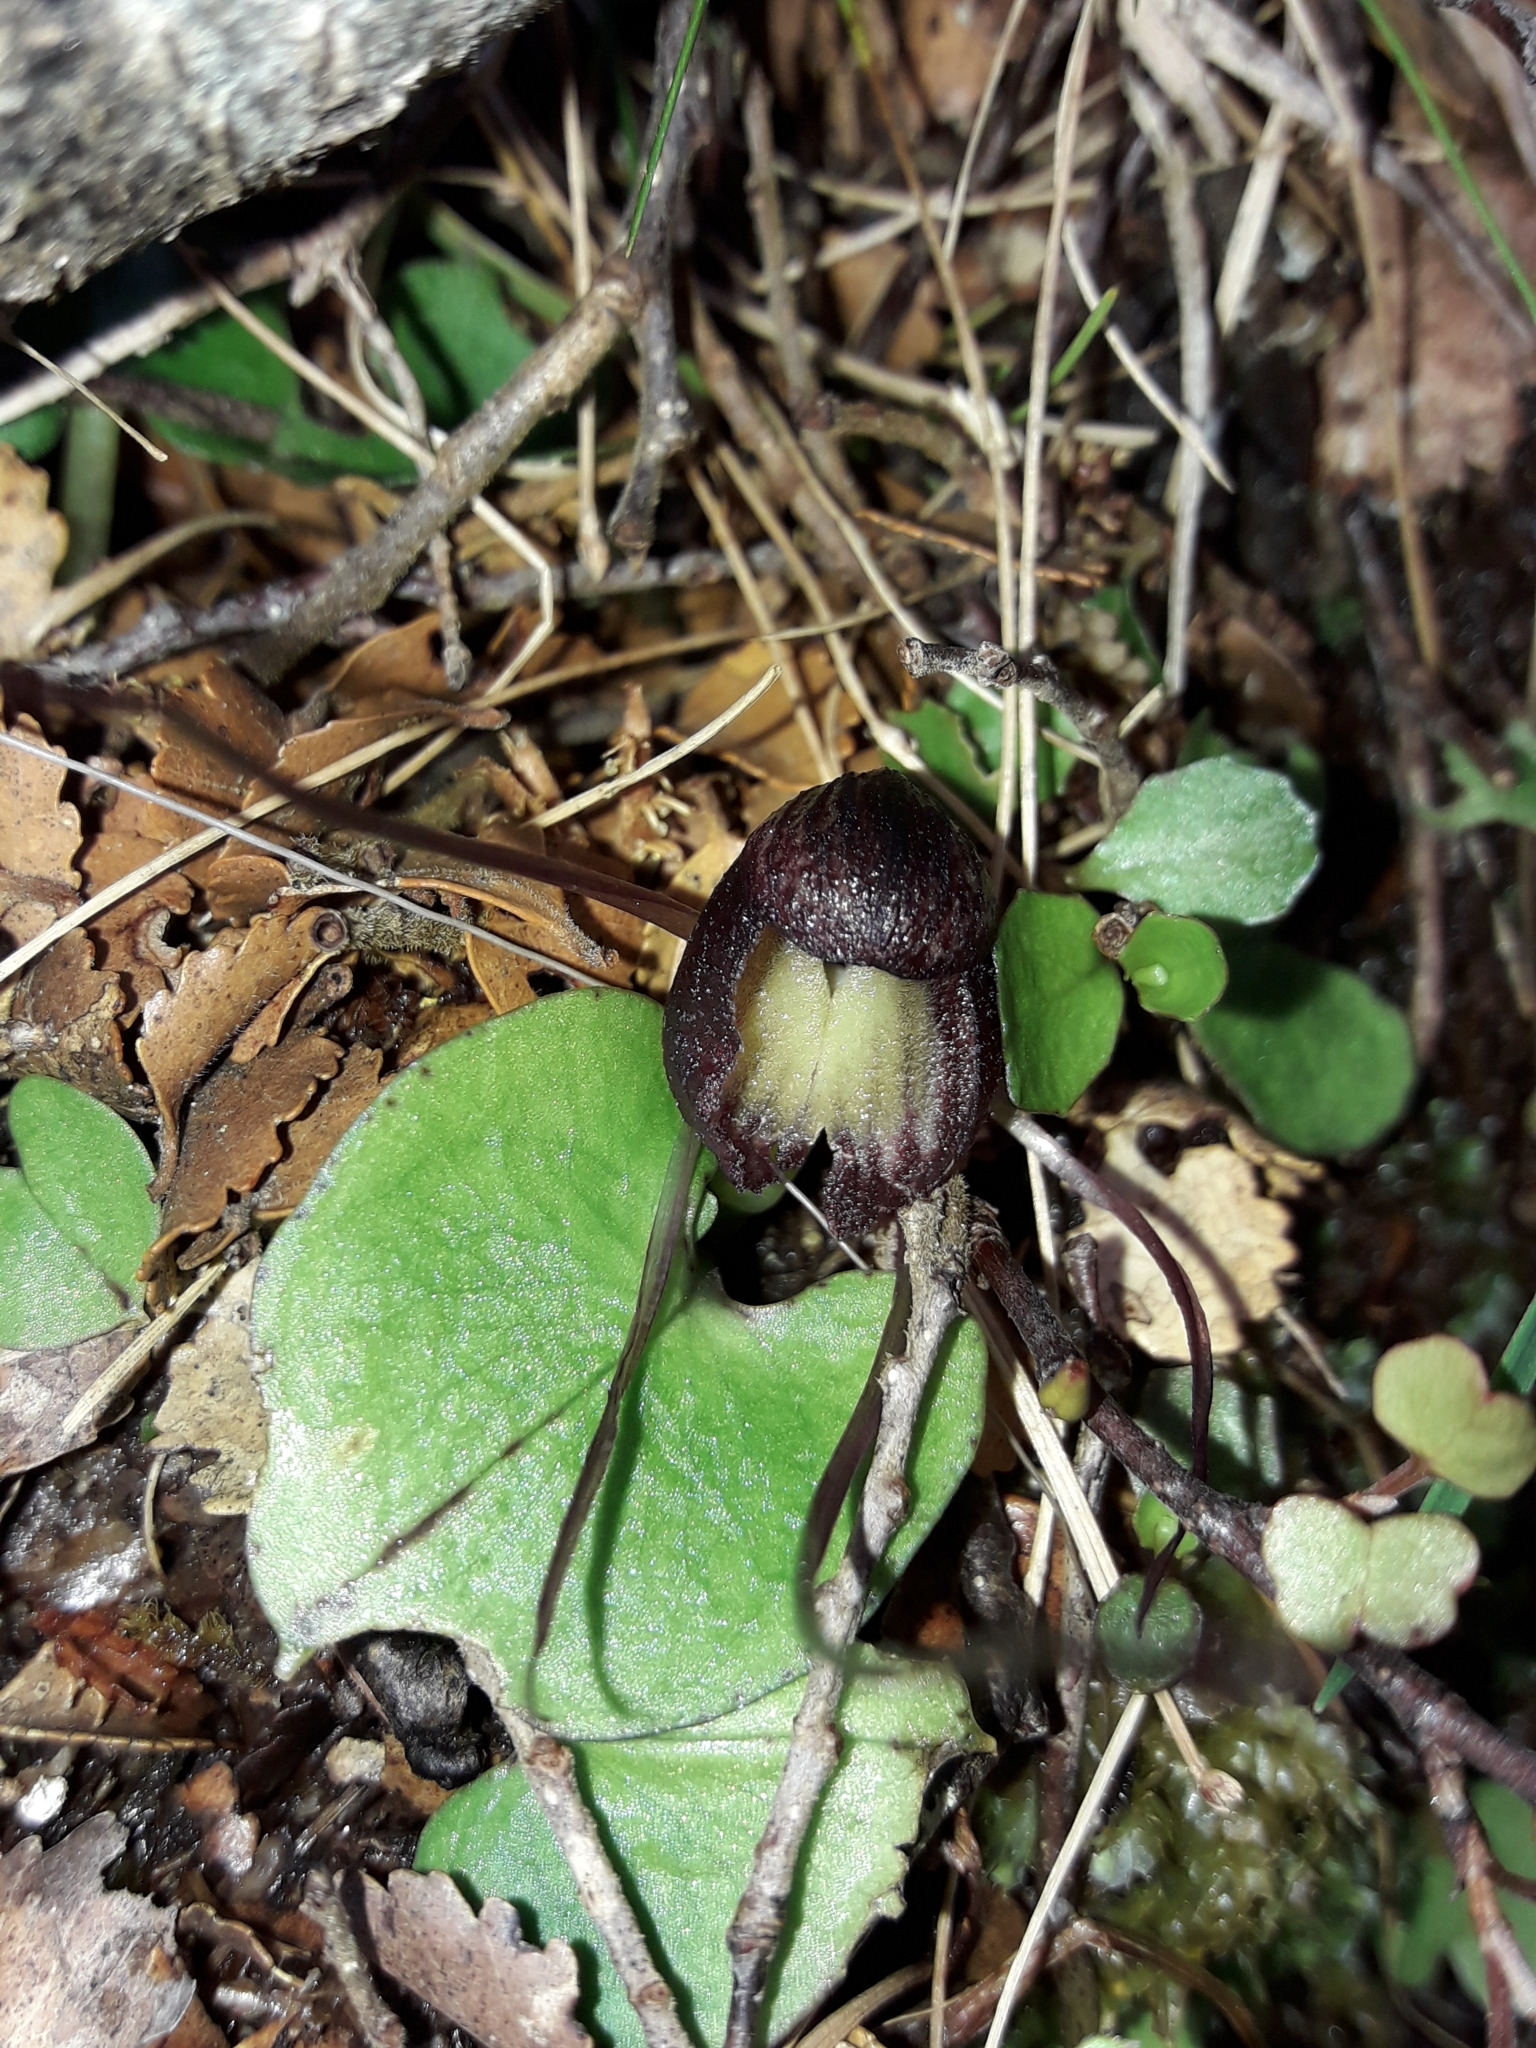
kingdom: Plantae
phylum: Tracheophyta
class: Liliopsida
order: Asparagales
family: Orchidaceae
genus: Corybas
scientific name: Corybas confusus
